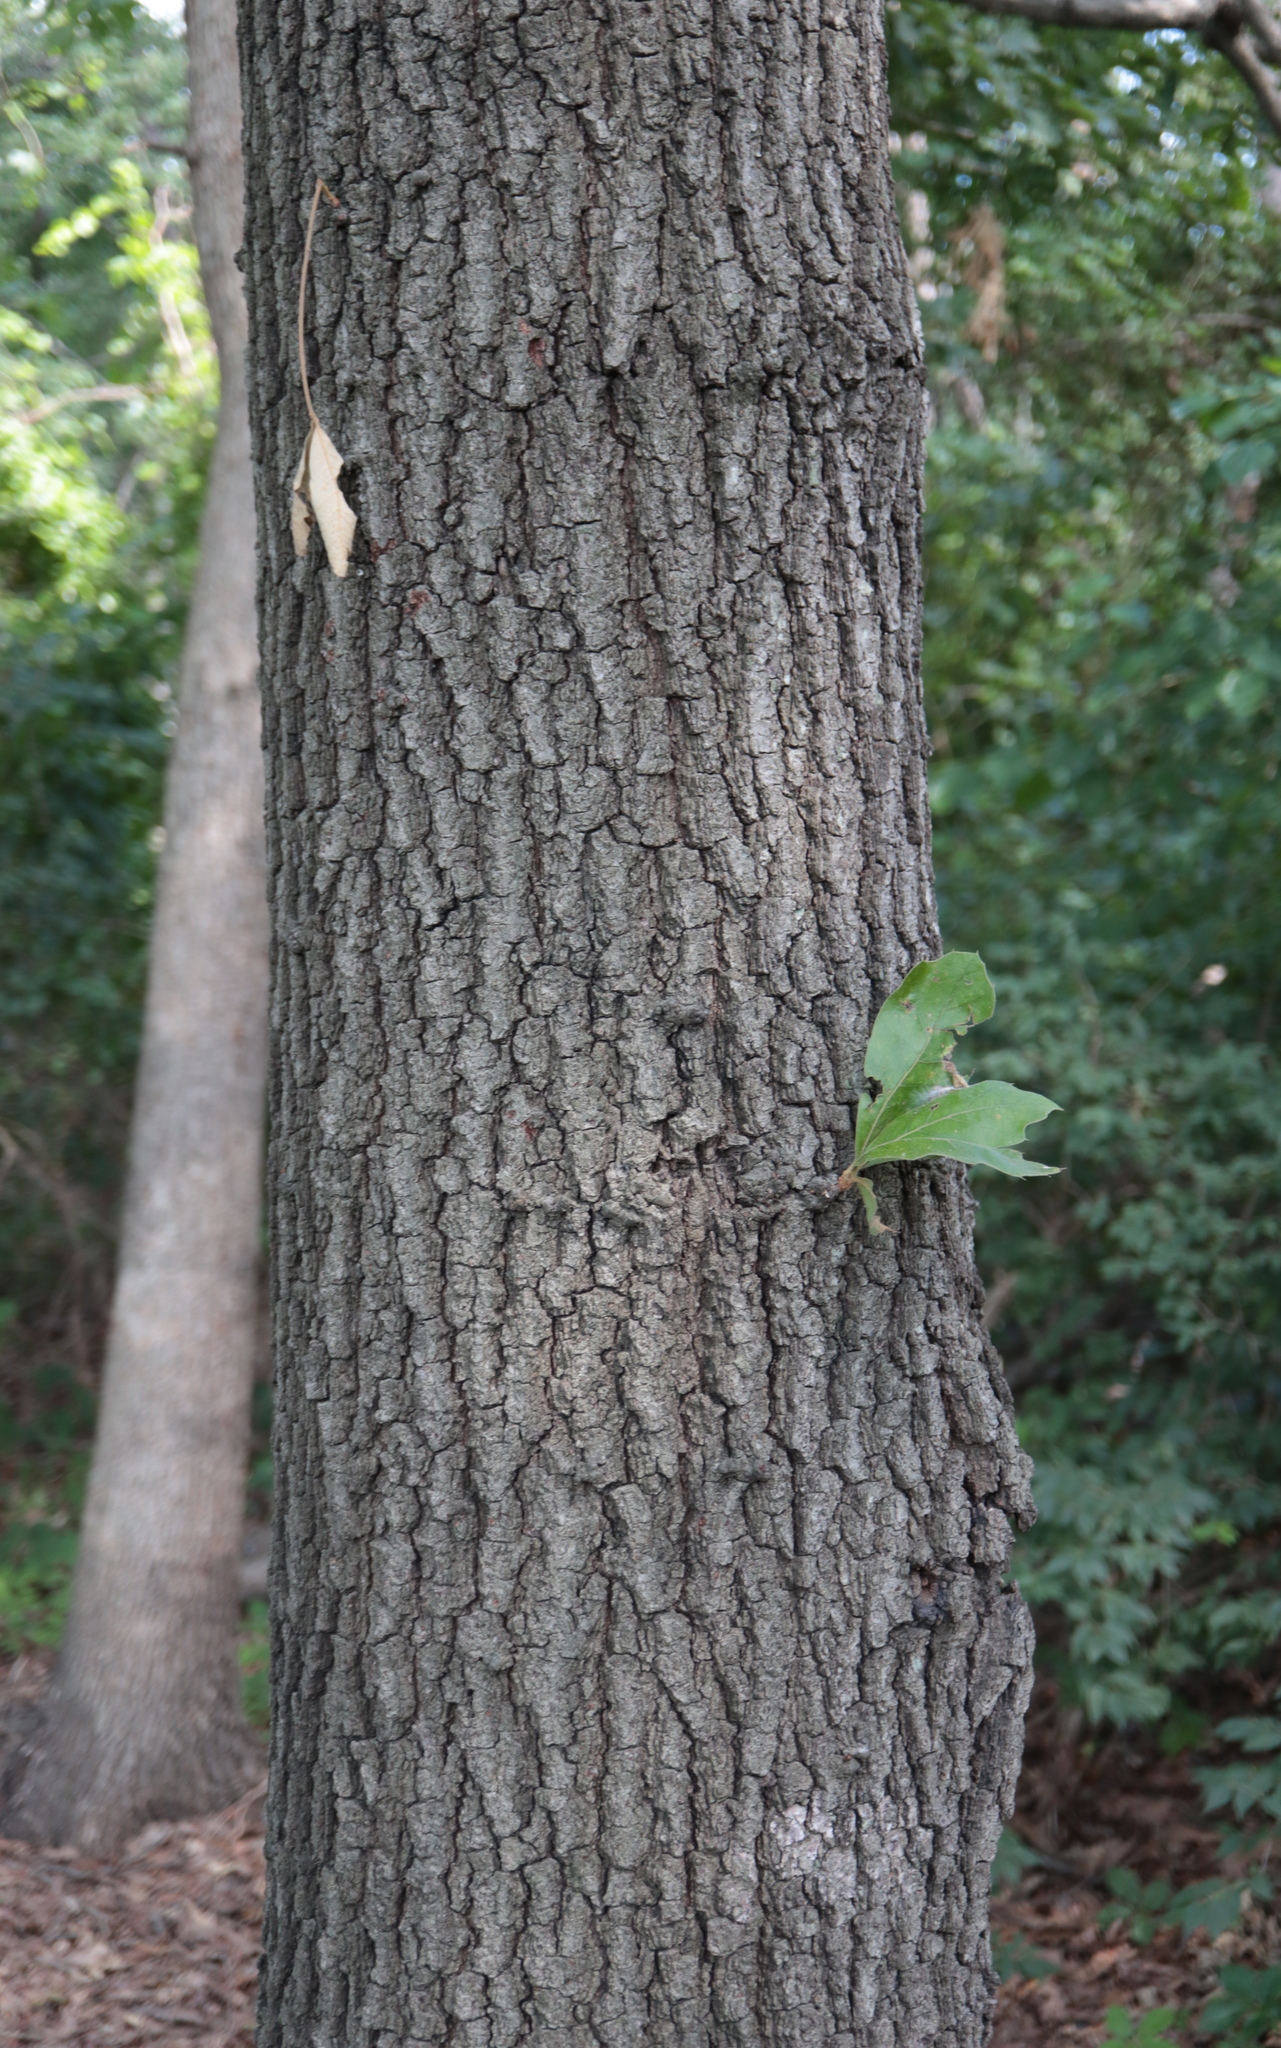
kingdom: Plantae
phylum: Tracheophyta
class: Magnoliopsida
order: Fagales
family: Fagaceae
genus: Quercus
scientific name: Quercus falcata
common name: Southern red oak
